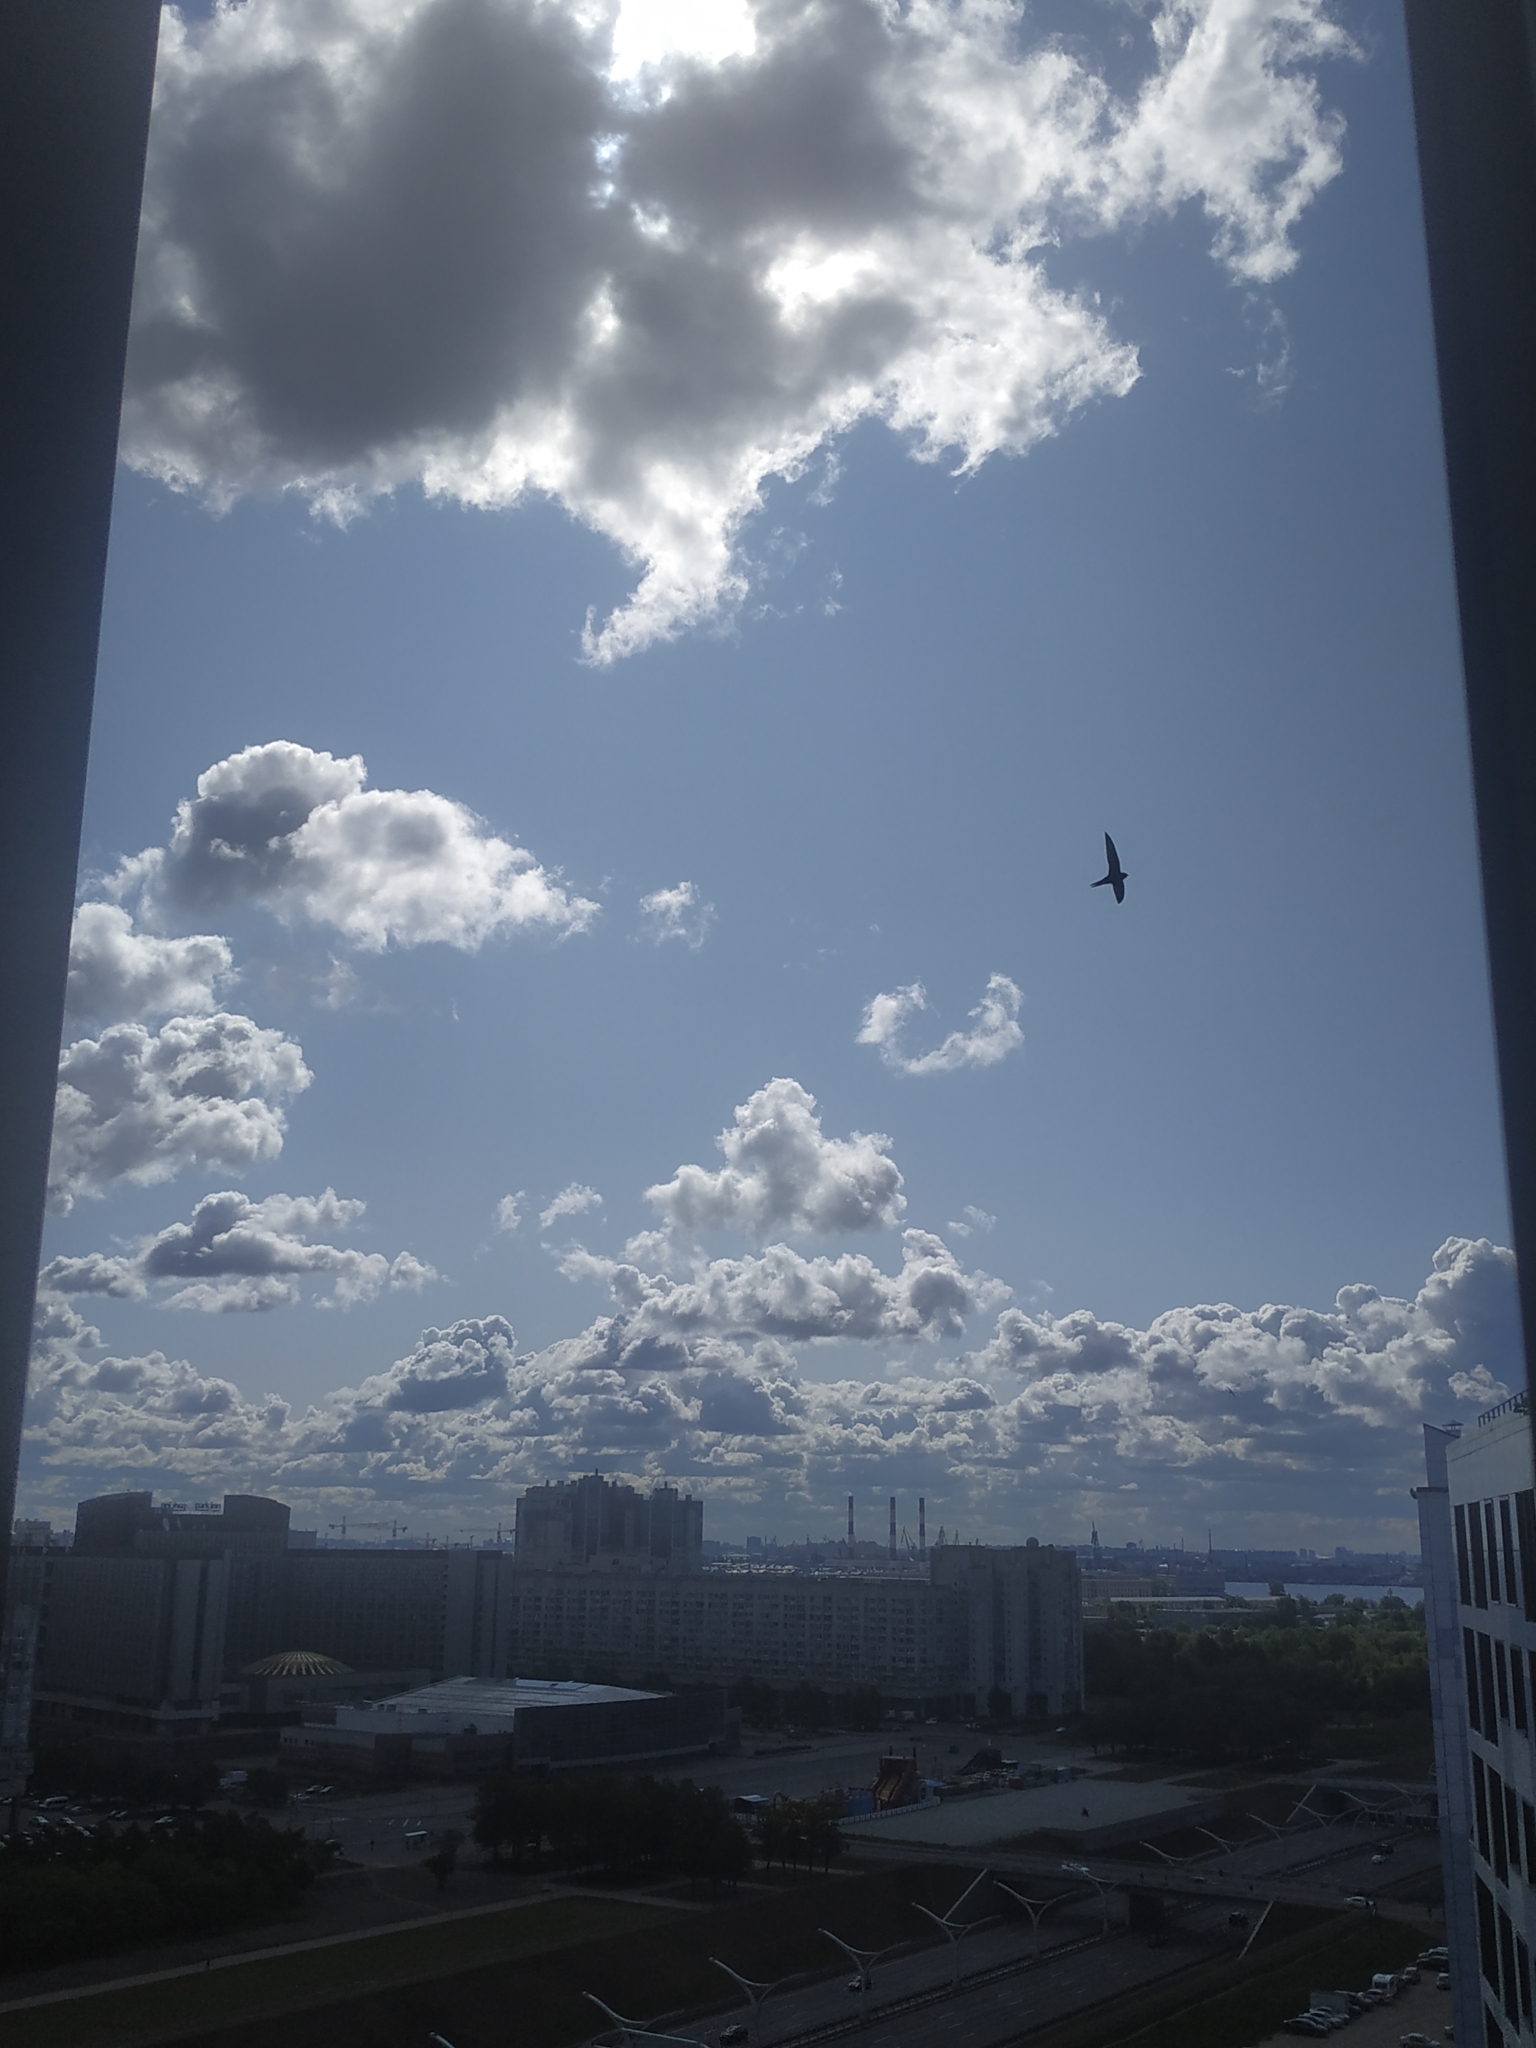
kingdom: Animalia
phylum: Chordata
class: Aves
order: Apodiformes
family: Apodidae
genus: Apus
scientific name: Apus apus
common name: Common swift
